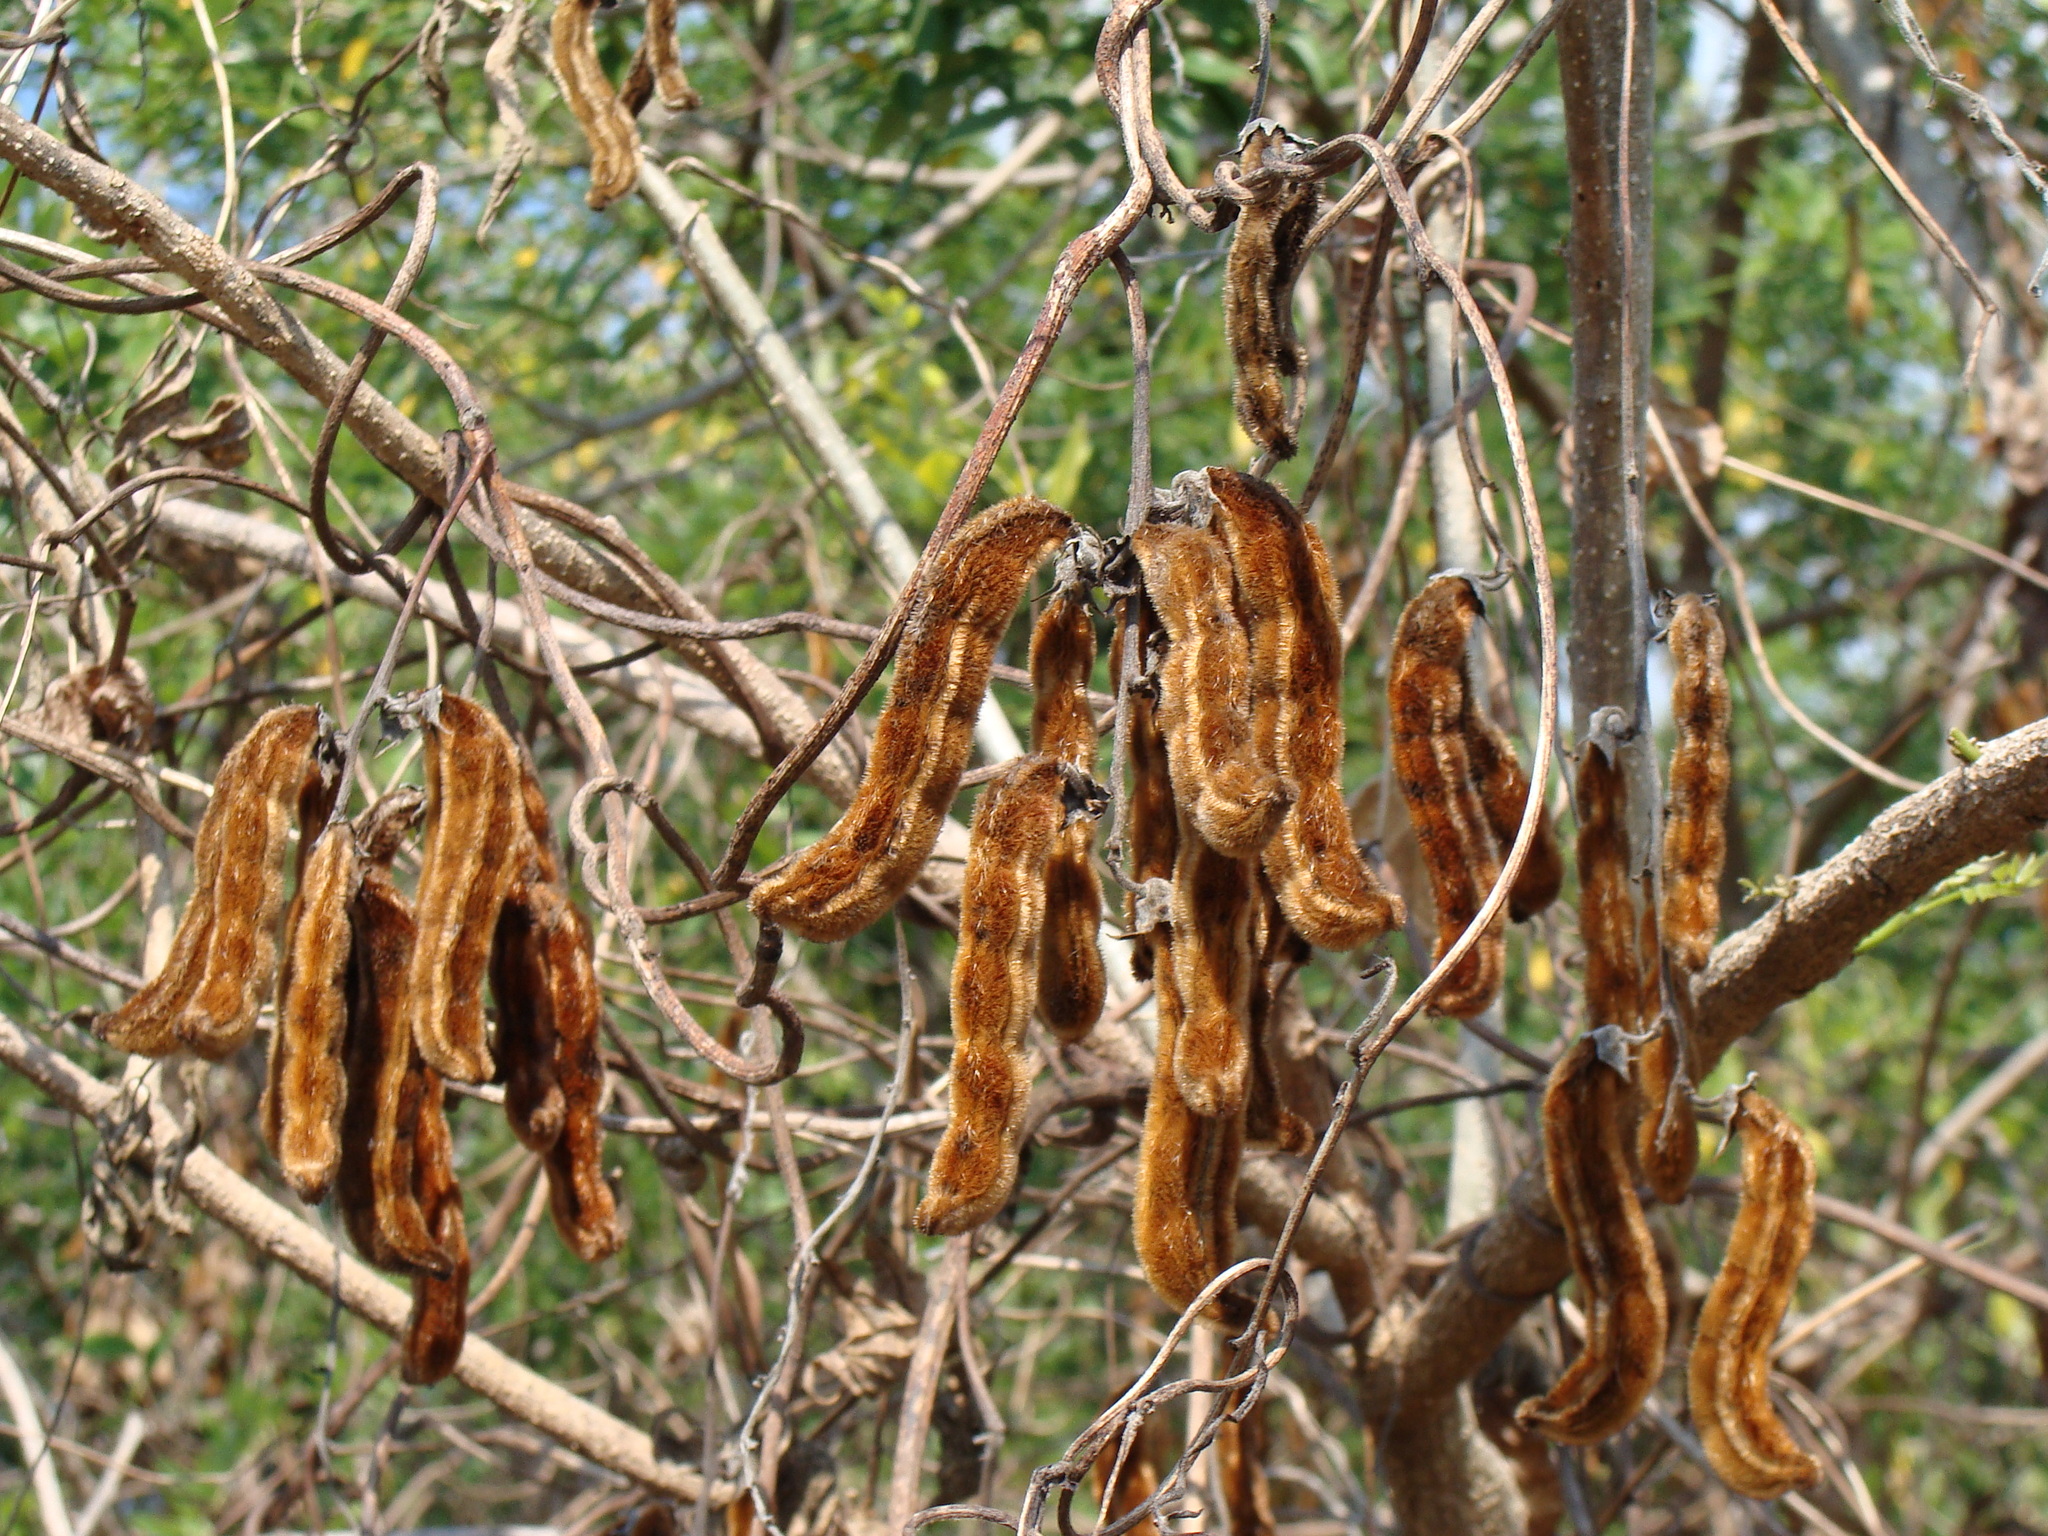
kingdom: Plantae
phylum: Tracheophyta
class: Magnoliopsida
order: Fabales
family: Fabaceae
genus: Mucuna
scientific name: Mucuna pruriens
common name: Cow-itch
